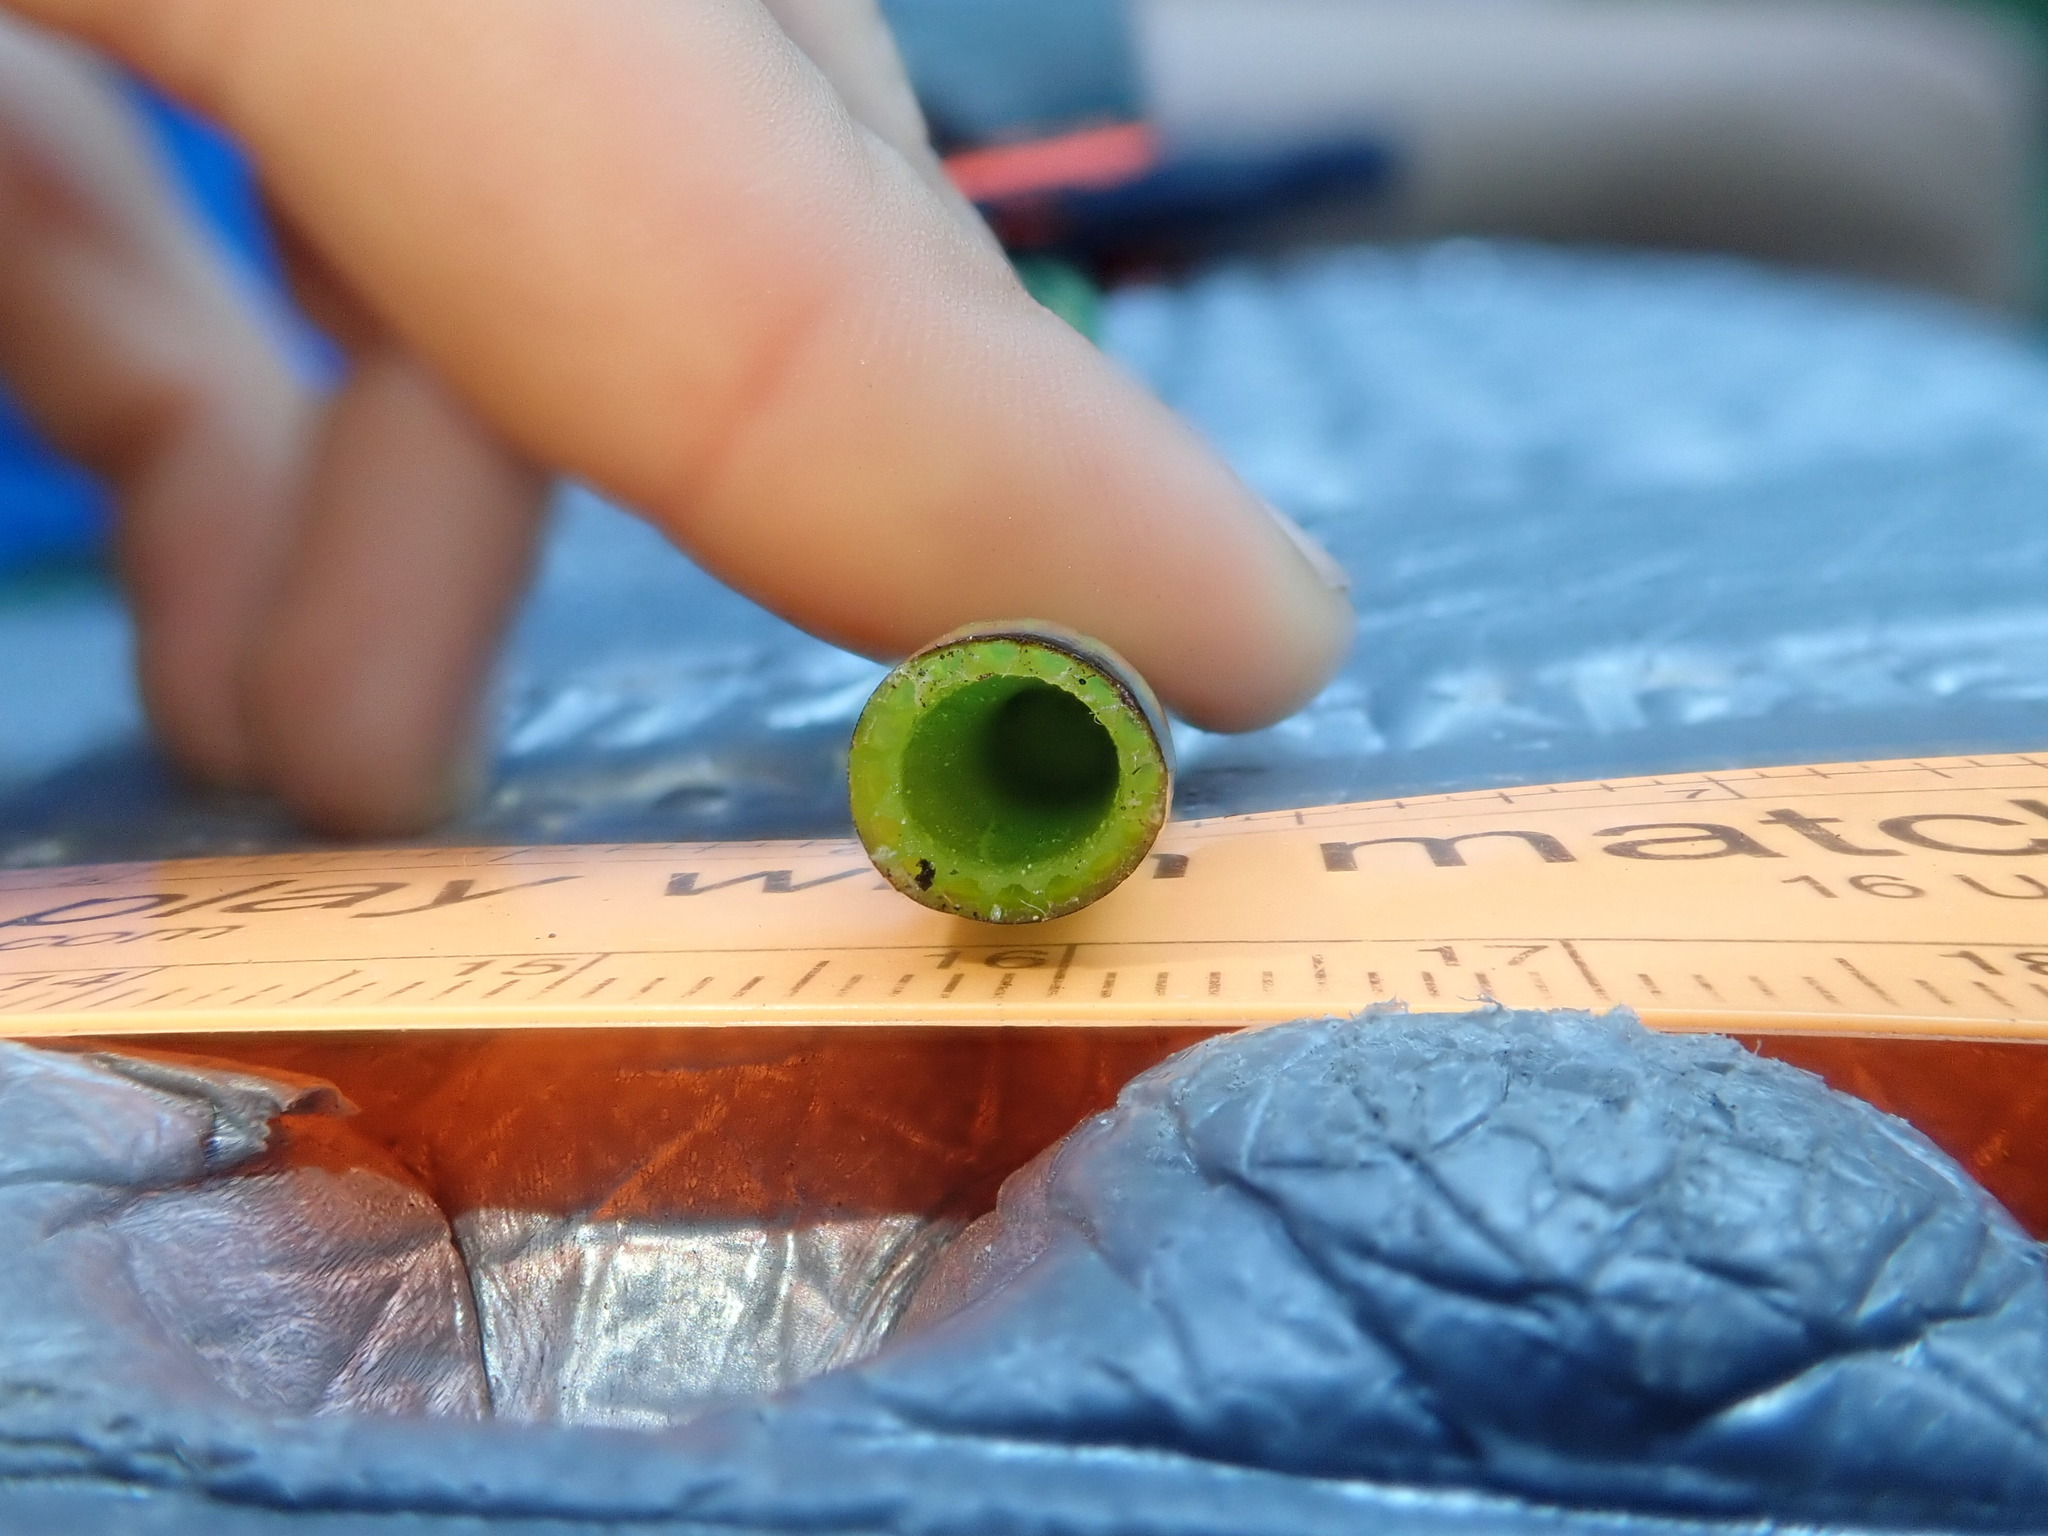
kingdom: Plantae
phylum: Tracheophyta
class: Polypodiopsida
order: Equisetales
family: Equisetaceae
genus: Equisetum
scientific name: Equisetum fluviatile
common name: Water horsetail
